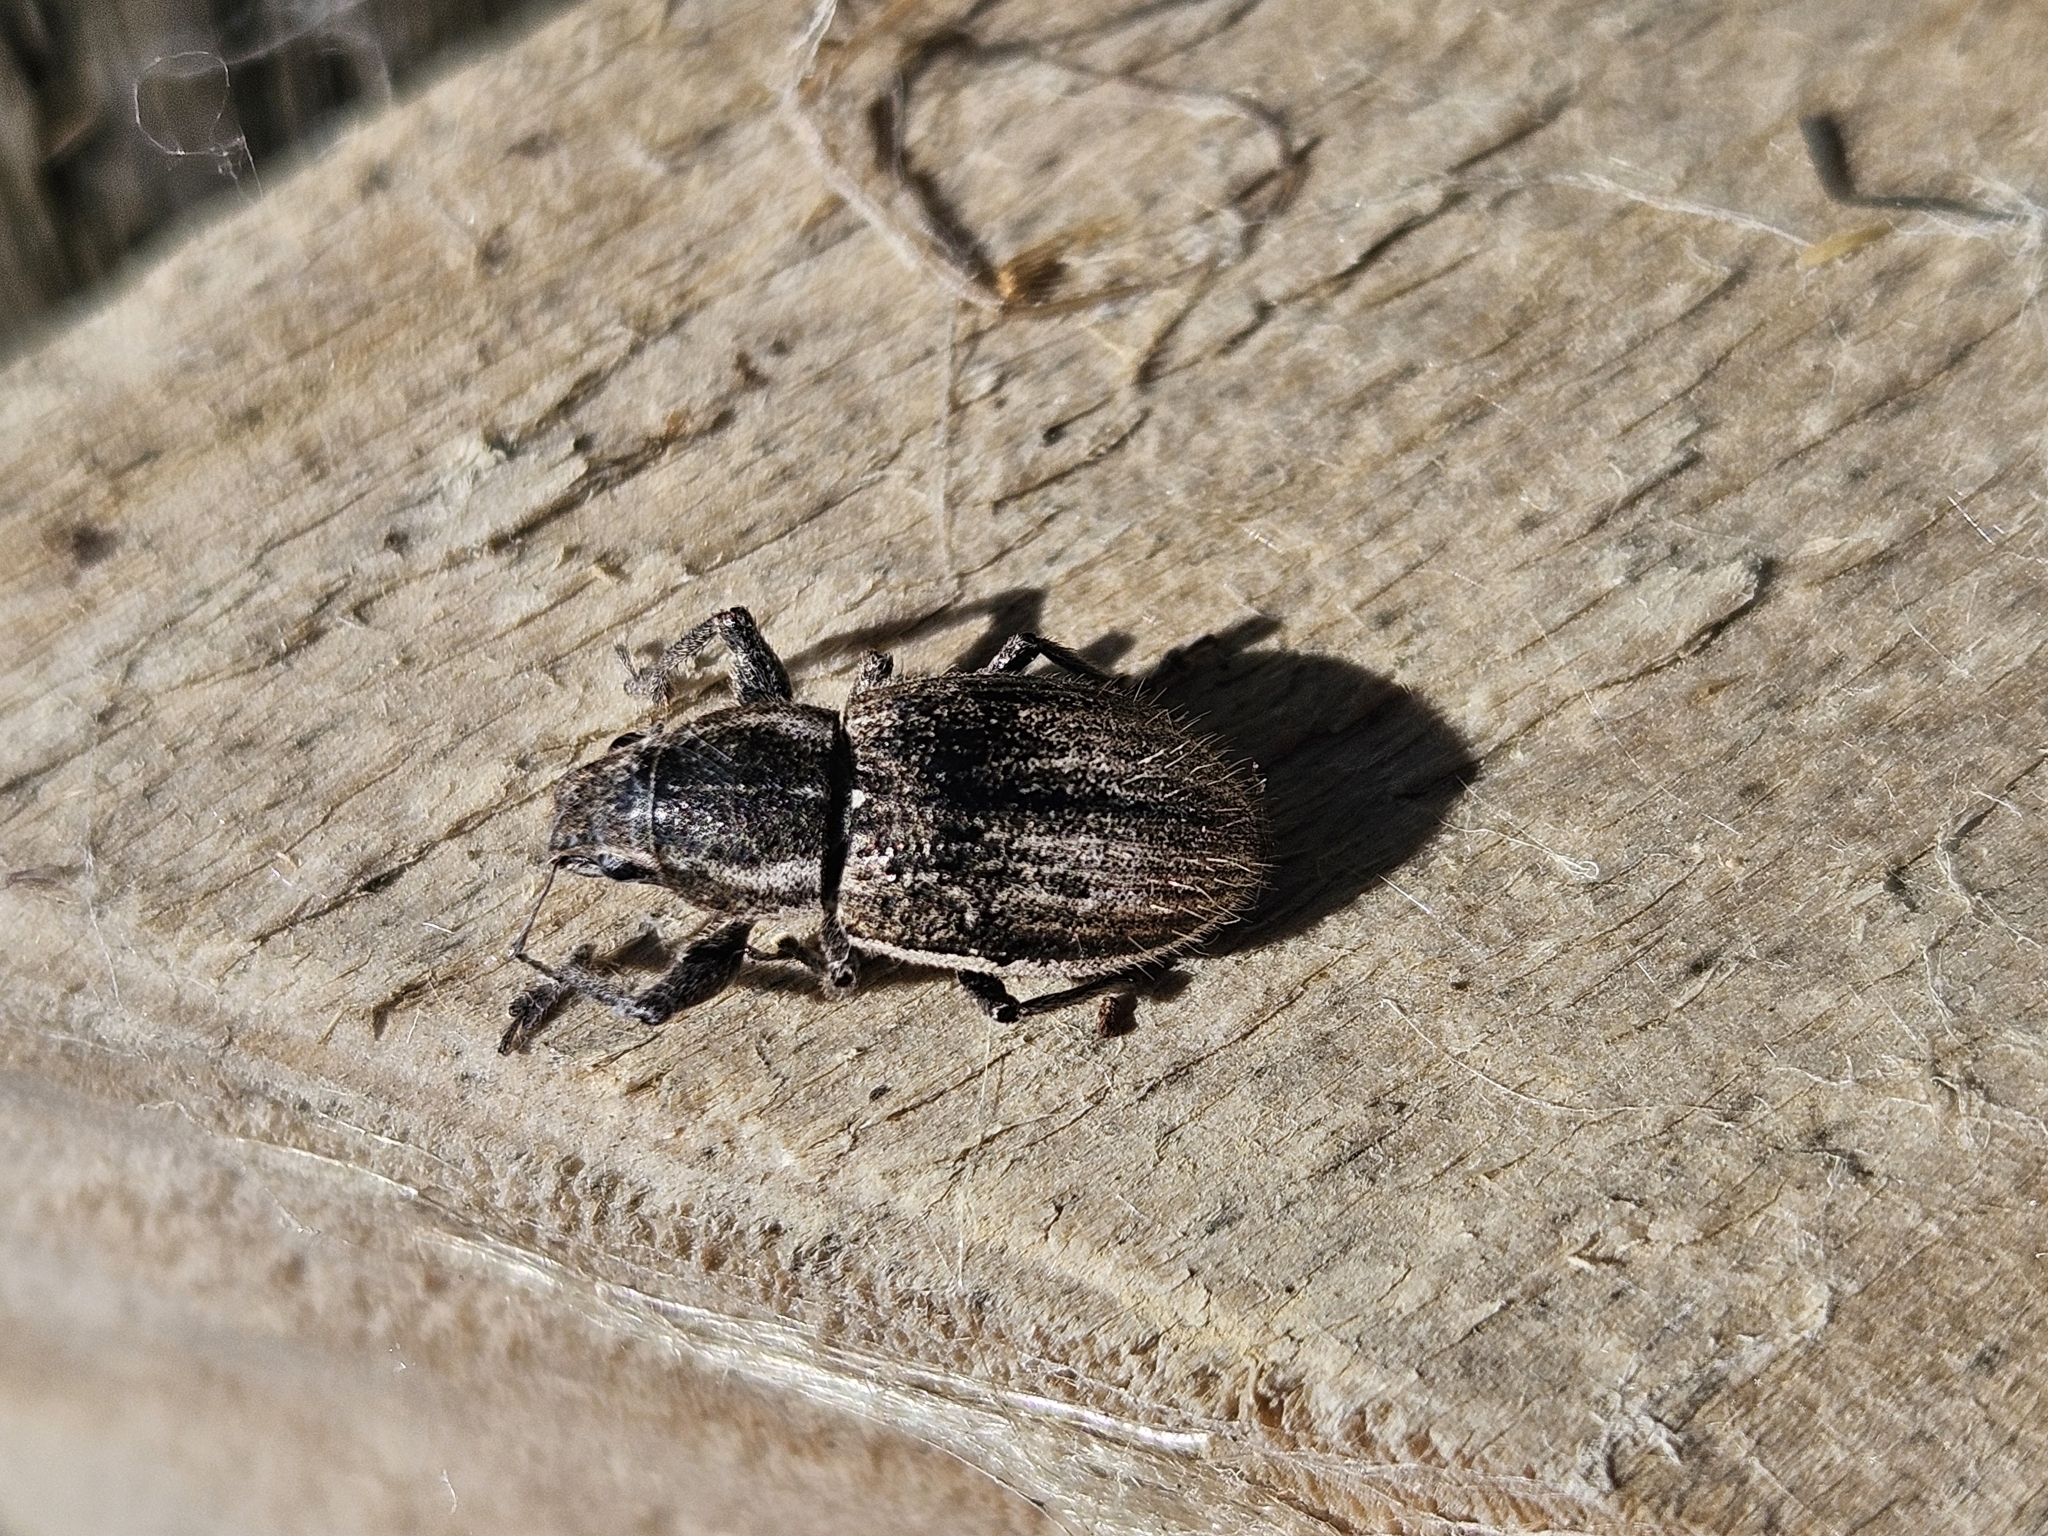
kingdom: Animalia
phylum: Arthropoda
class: Insecta
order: Coleoptera
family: Curculionidae
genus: Naupactus
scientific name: Naupactus leucoloma
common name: Whitefringed beetle
